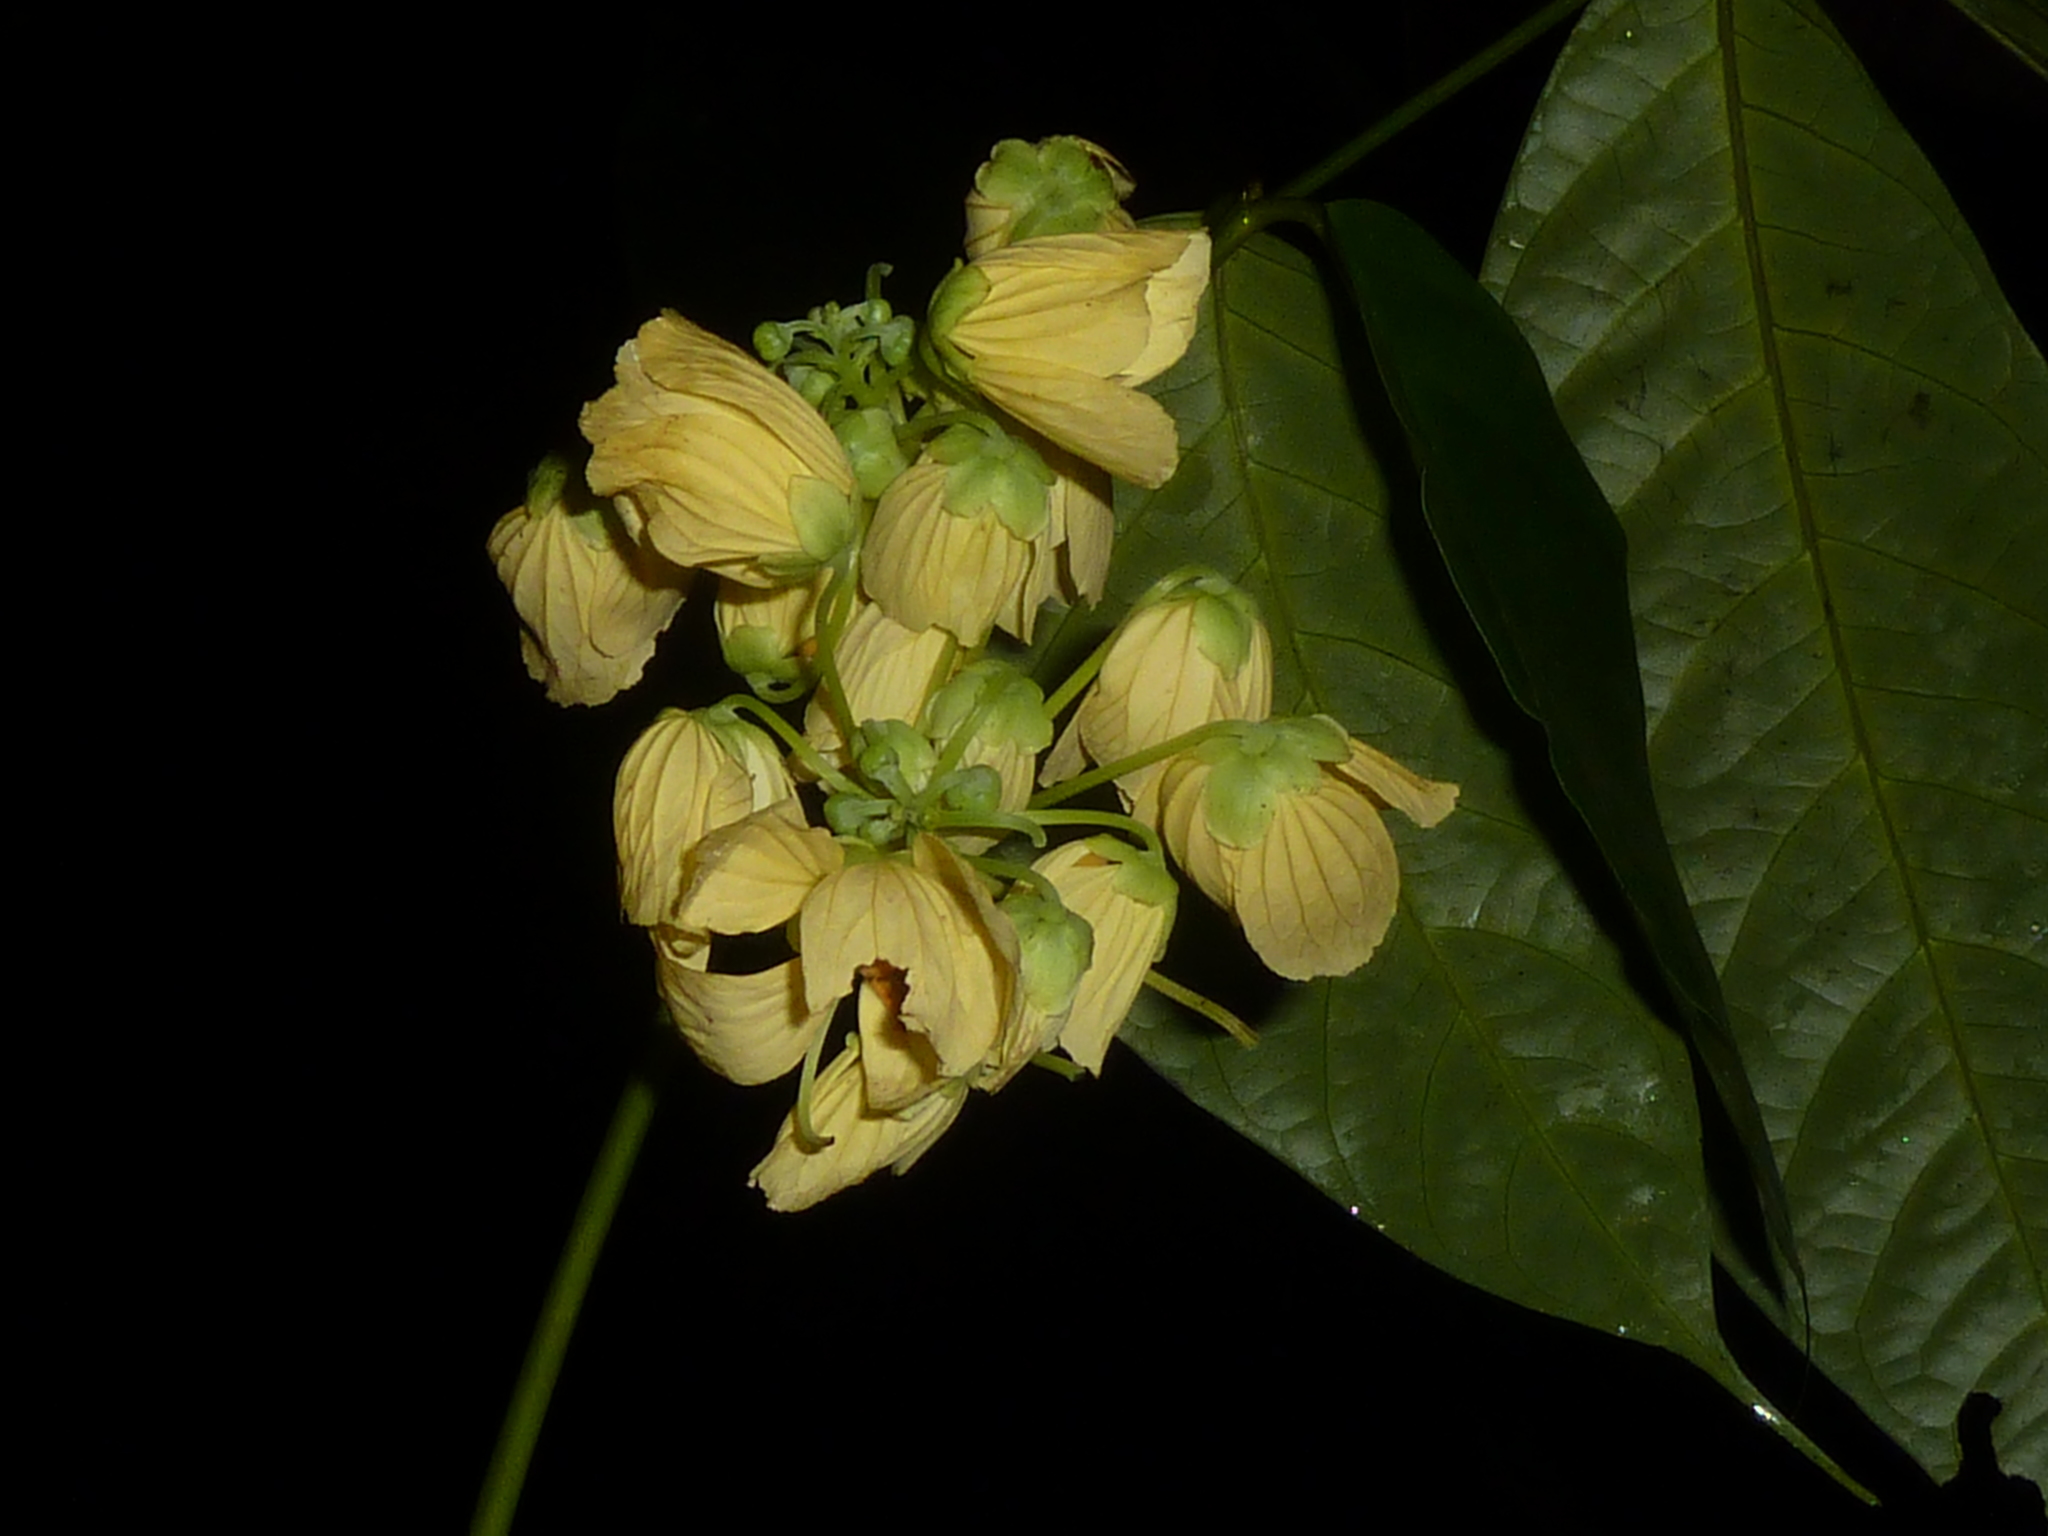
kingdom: Plantae
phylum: Tracheophyta
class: Magnoliopsida
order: Fabales
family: Fabaceae
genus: Senna
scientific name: Senna caudata
